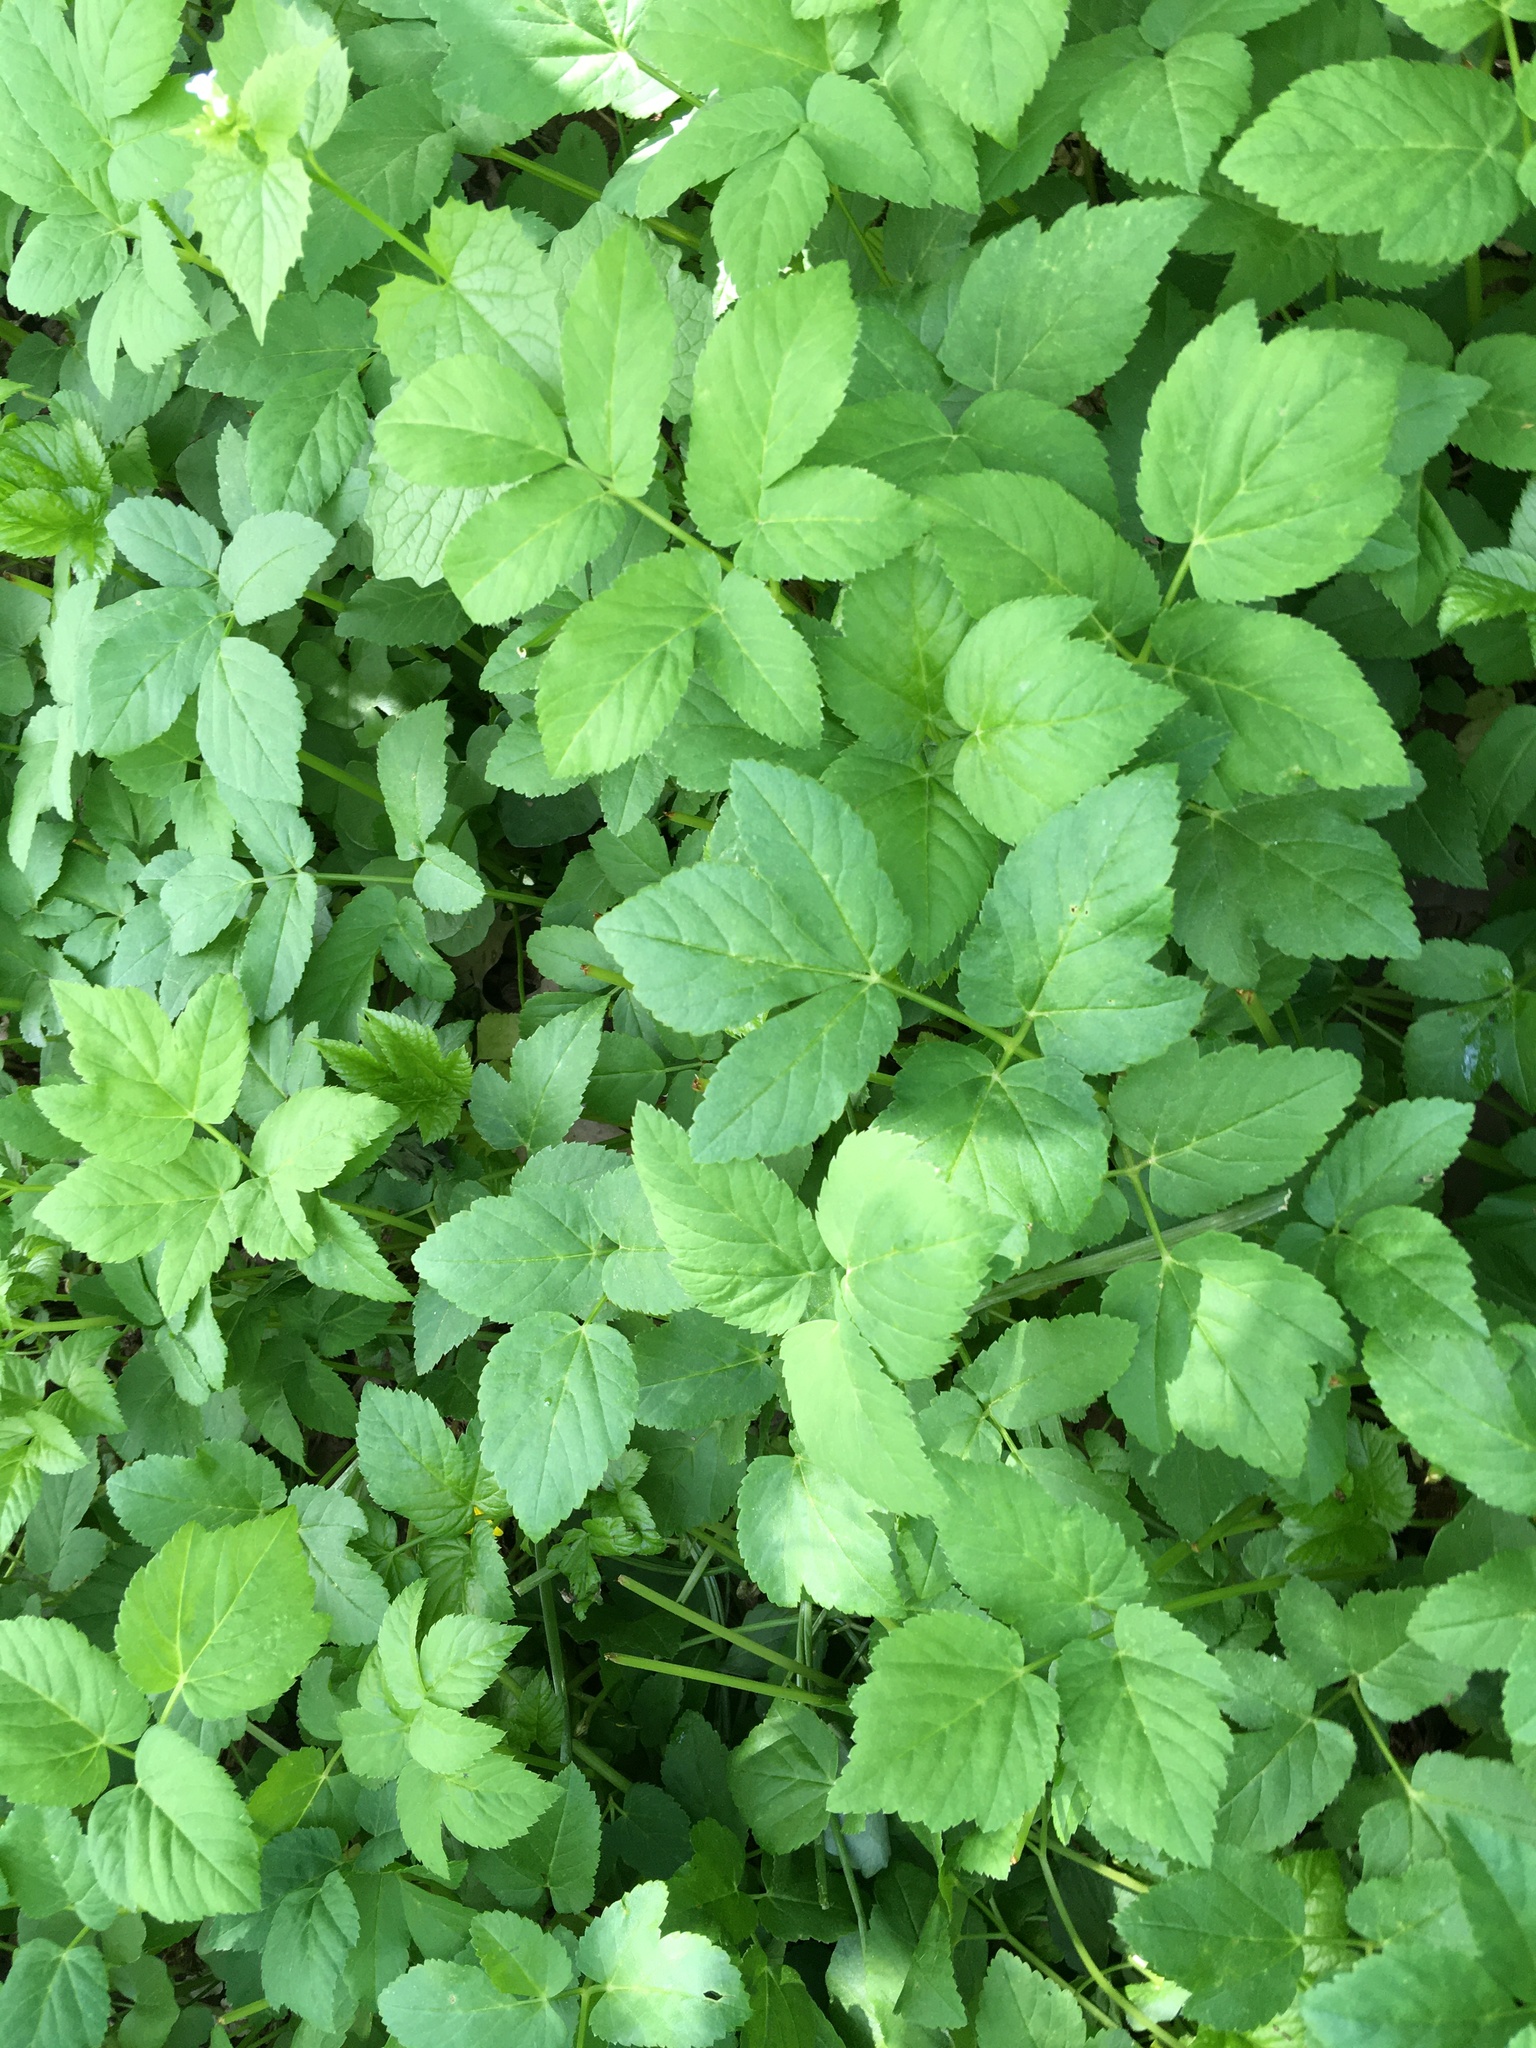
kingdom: Plantae
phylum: Tracheophyta
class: Magnoliopsida
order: Apiales
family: Apiaceae
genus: Aegopodium
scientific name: Aegopodium podagraria
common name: Ground-elder
